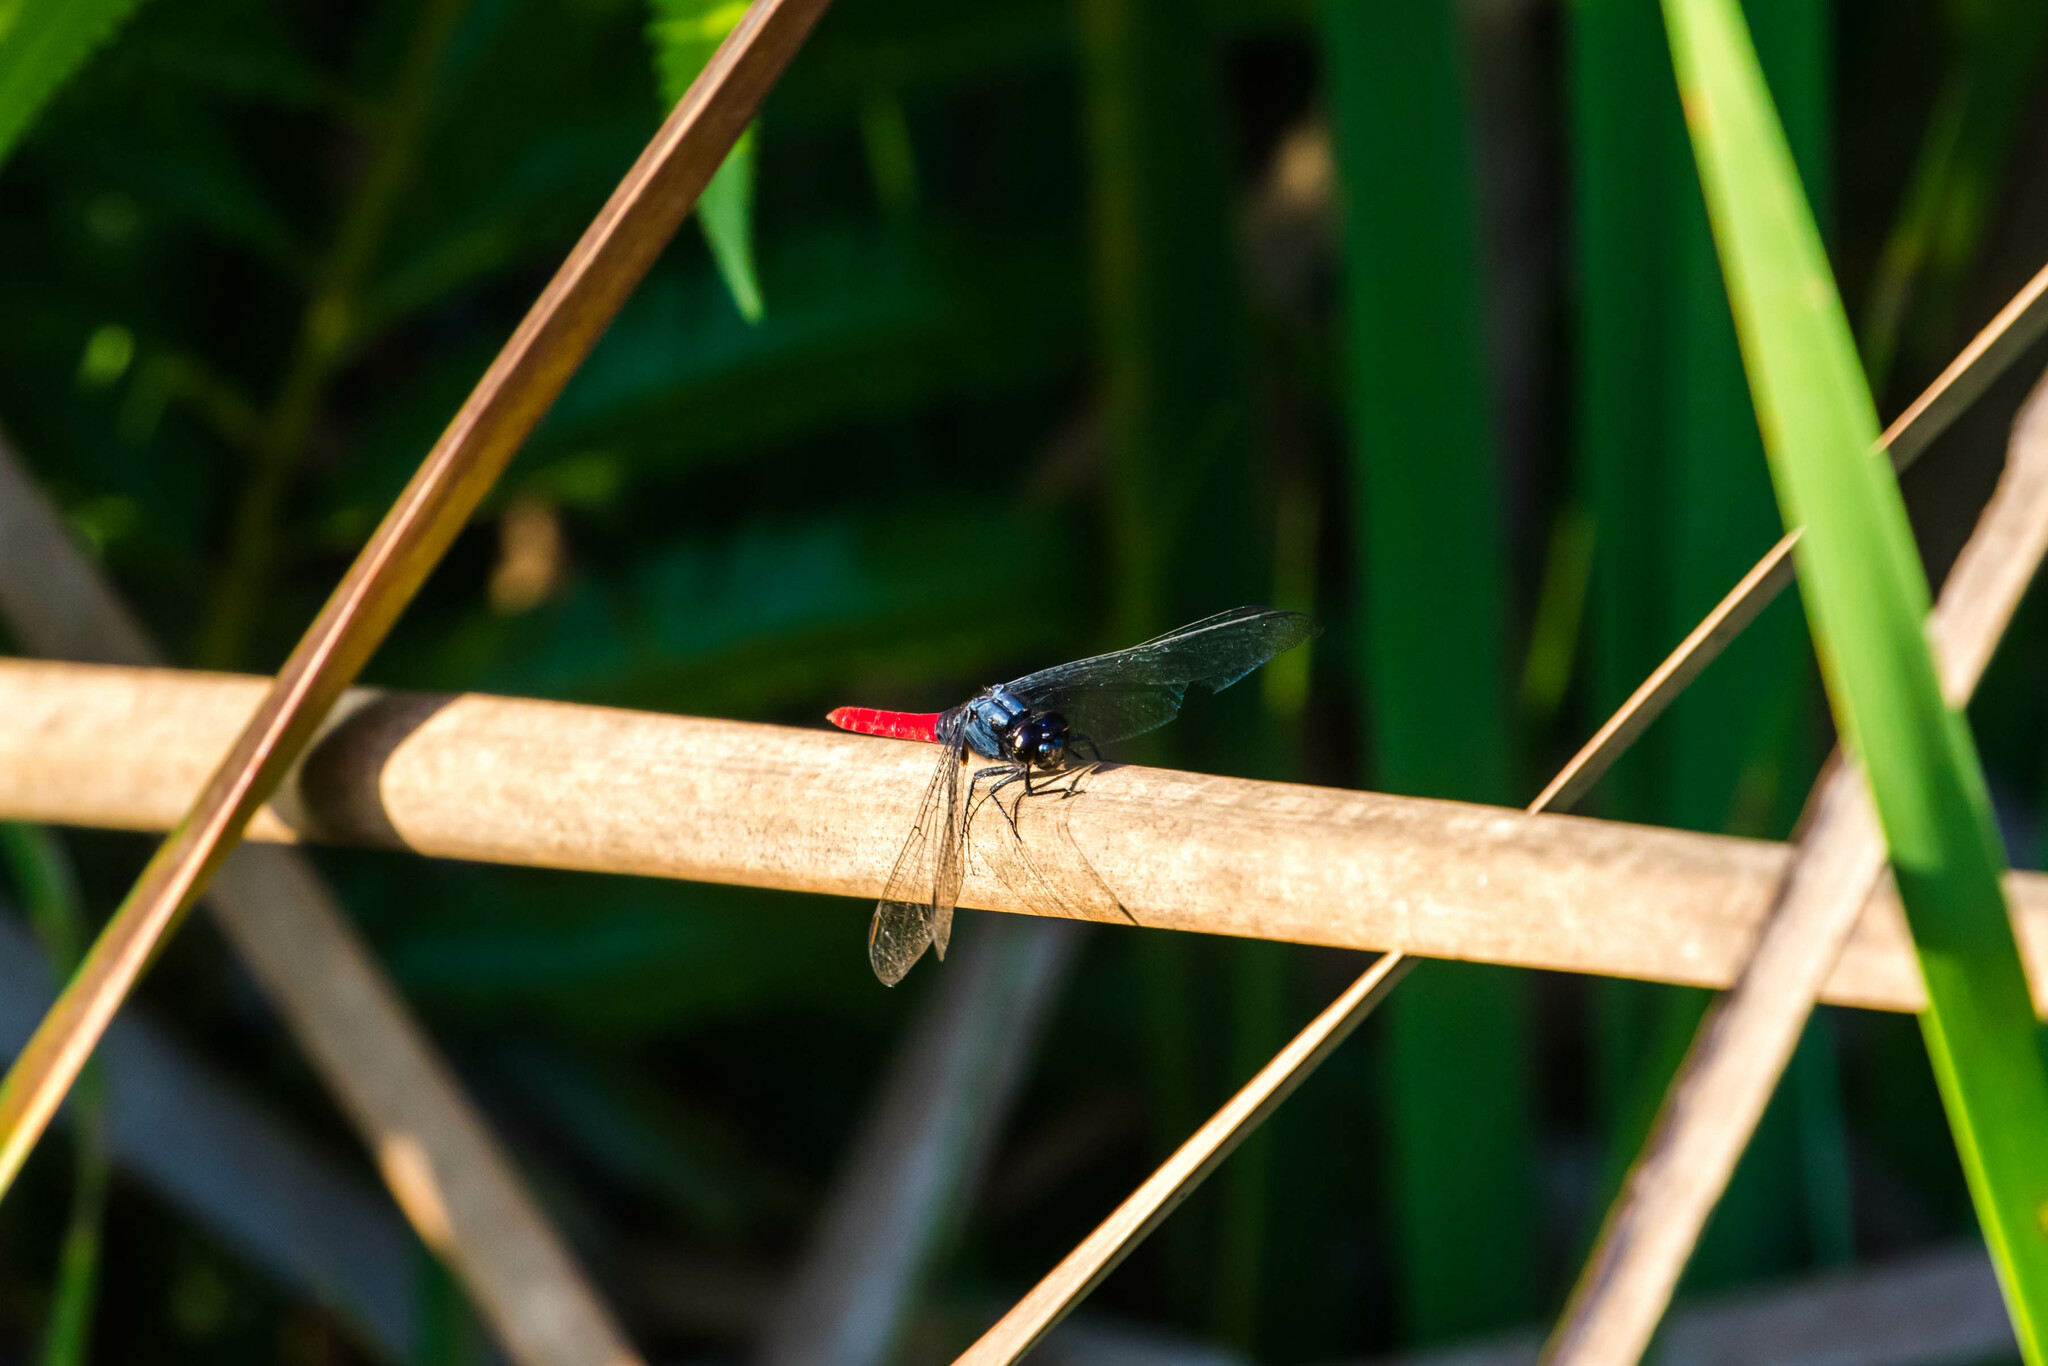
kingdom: Animalia
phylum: Arthropoda
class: Insecta
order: Odonata
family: Libellulidae
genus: Erythemis
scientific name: Erythemis peruviana
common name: Flame-tailed pondhawk
